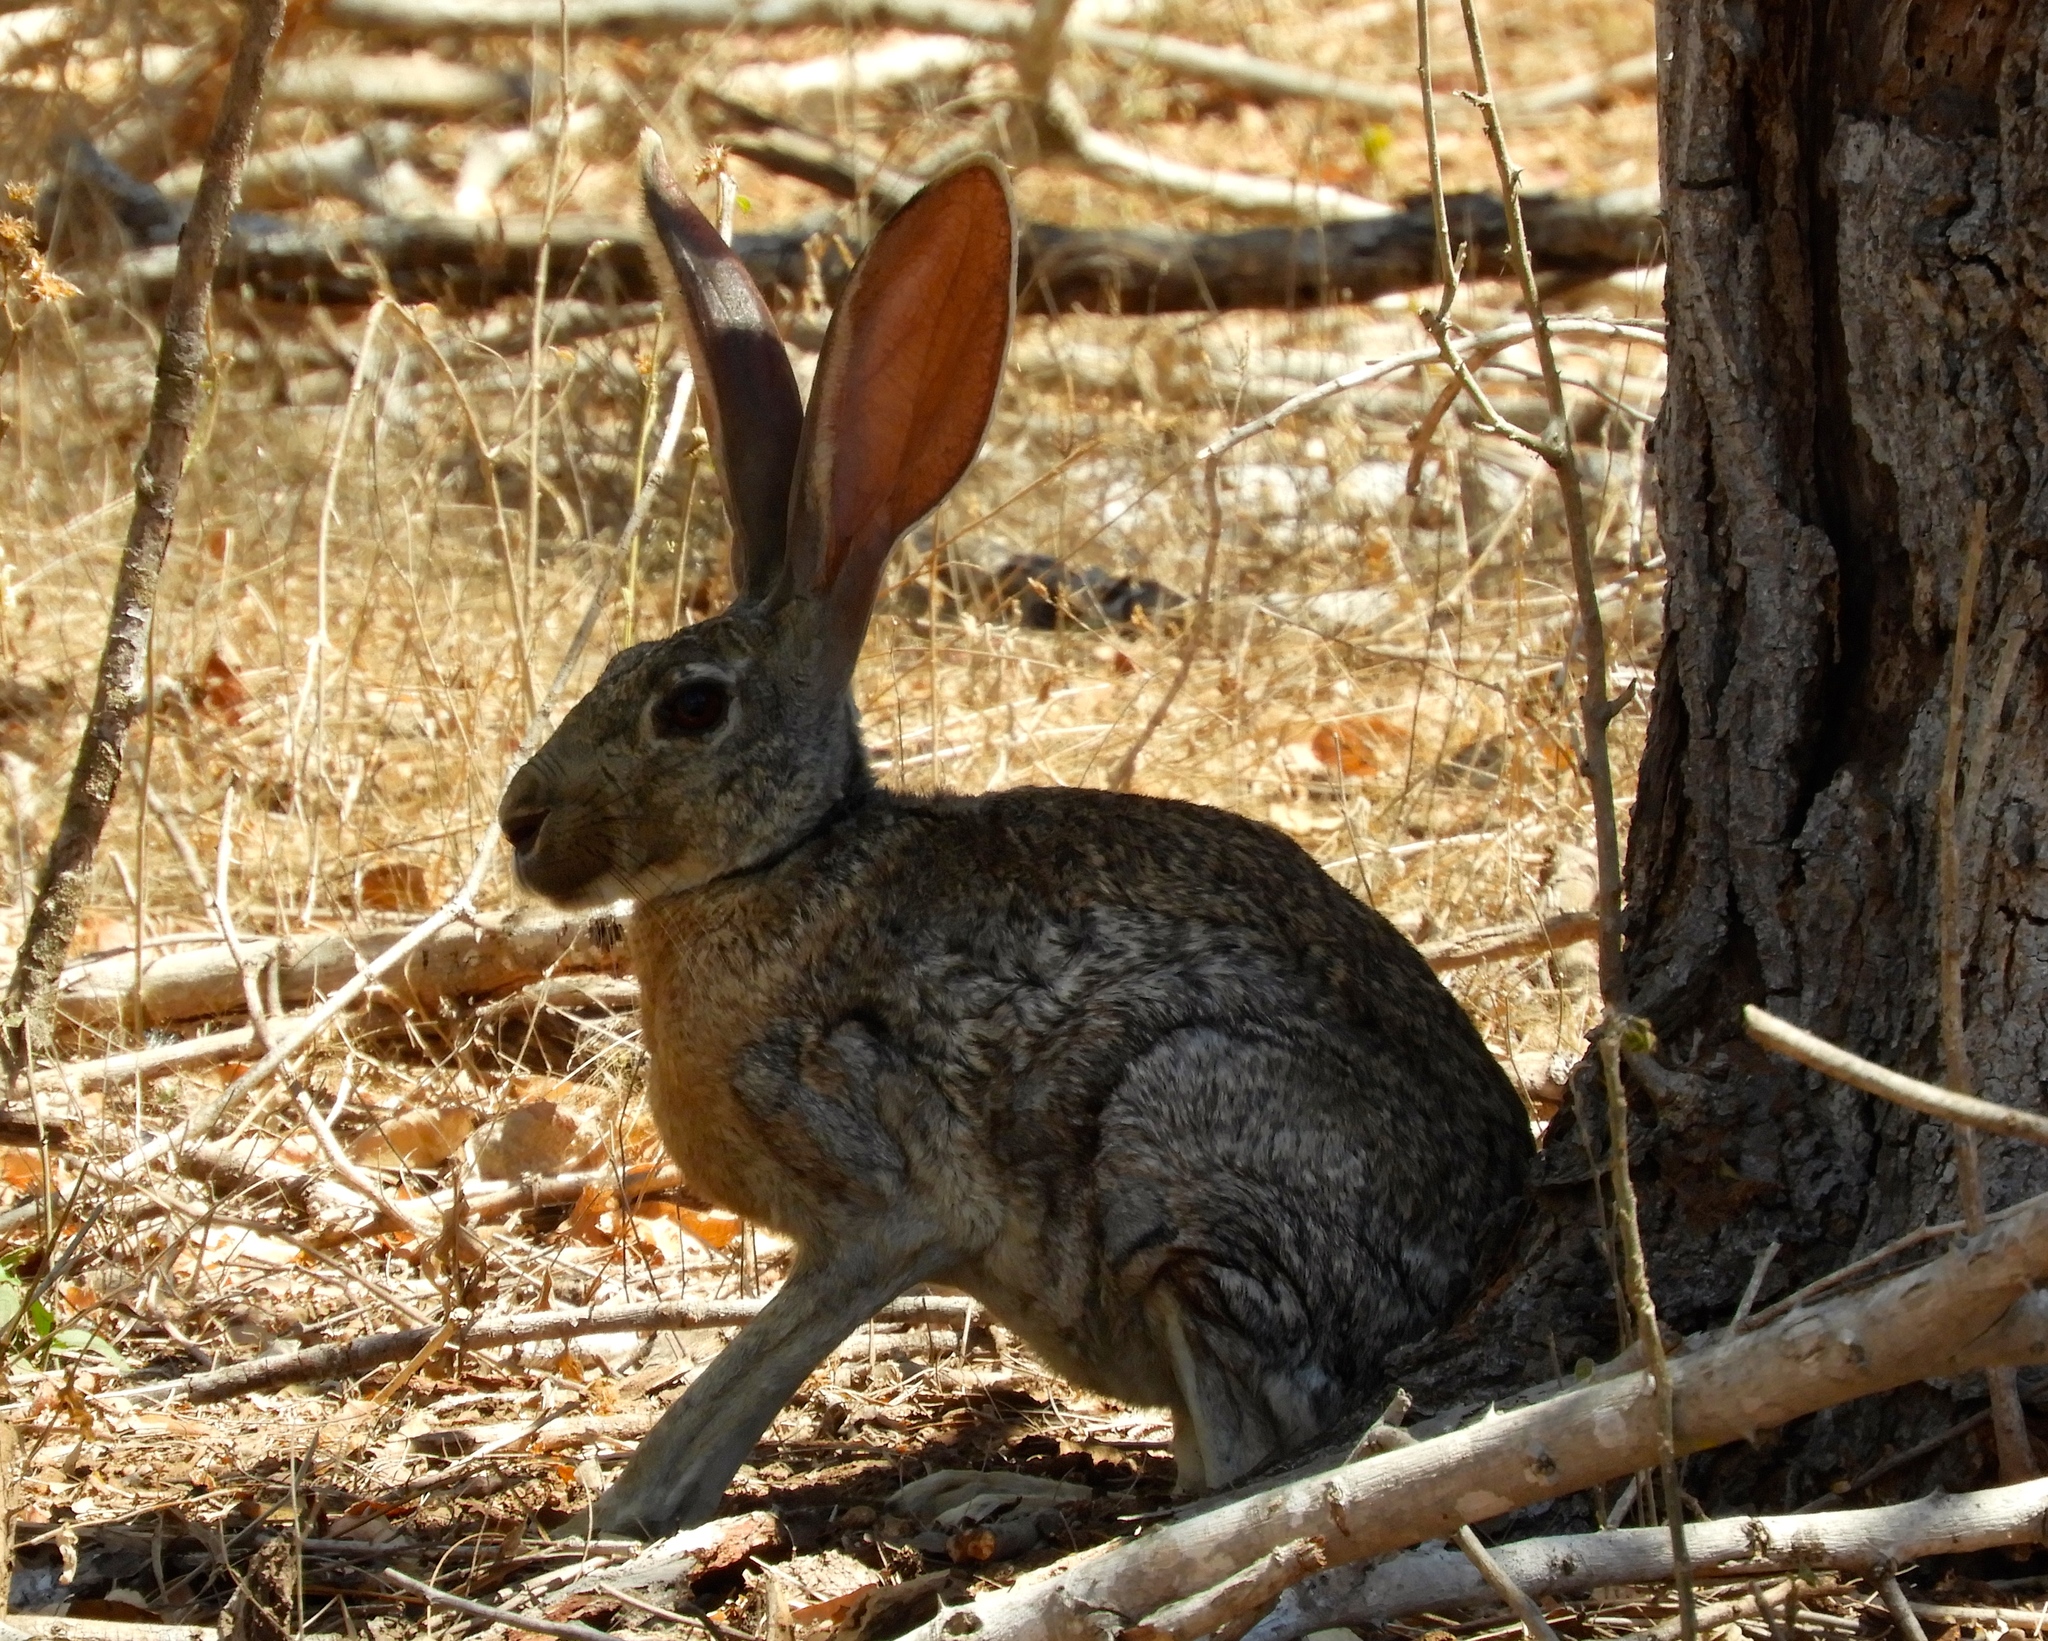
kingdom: Animalia
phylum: Chordata
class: Mammalia
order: Lagomorpha
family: Leporidae
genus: Lepus
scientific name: Lepus alleni
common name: Antelope jackrabbit
